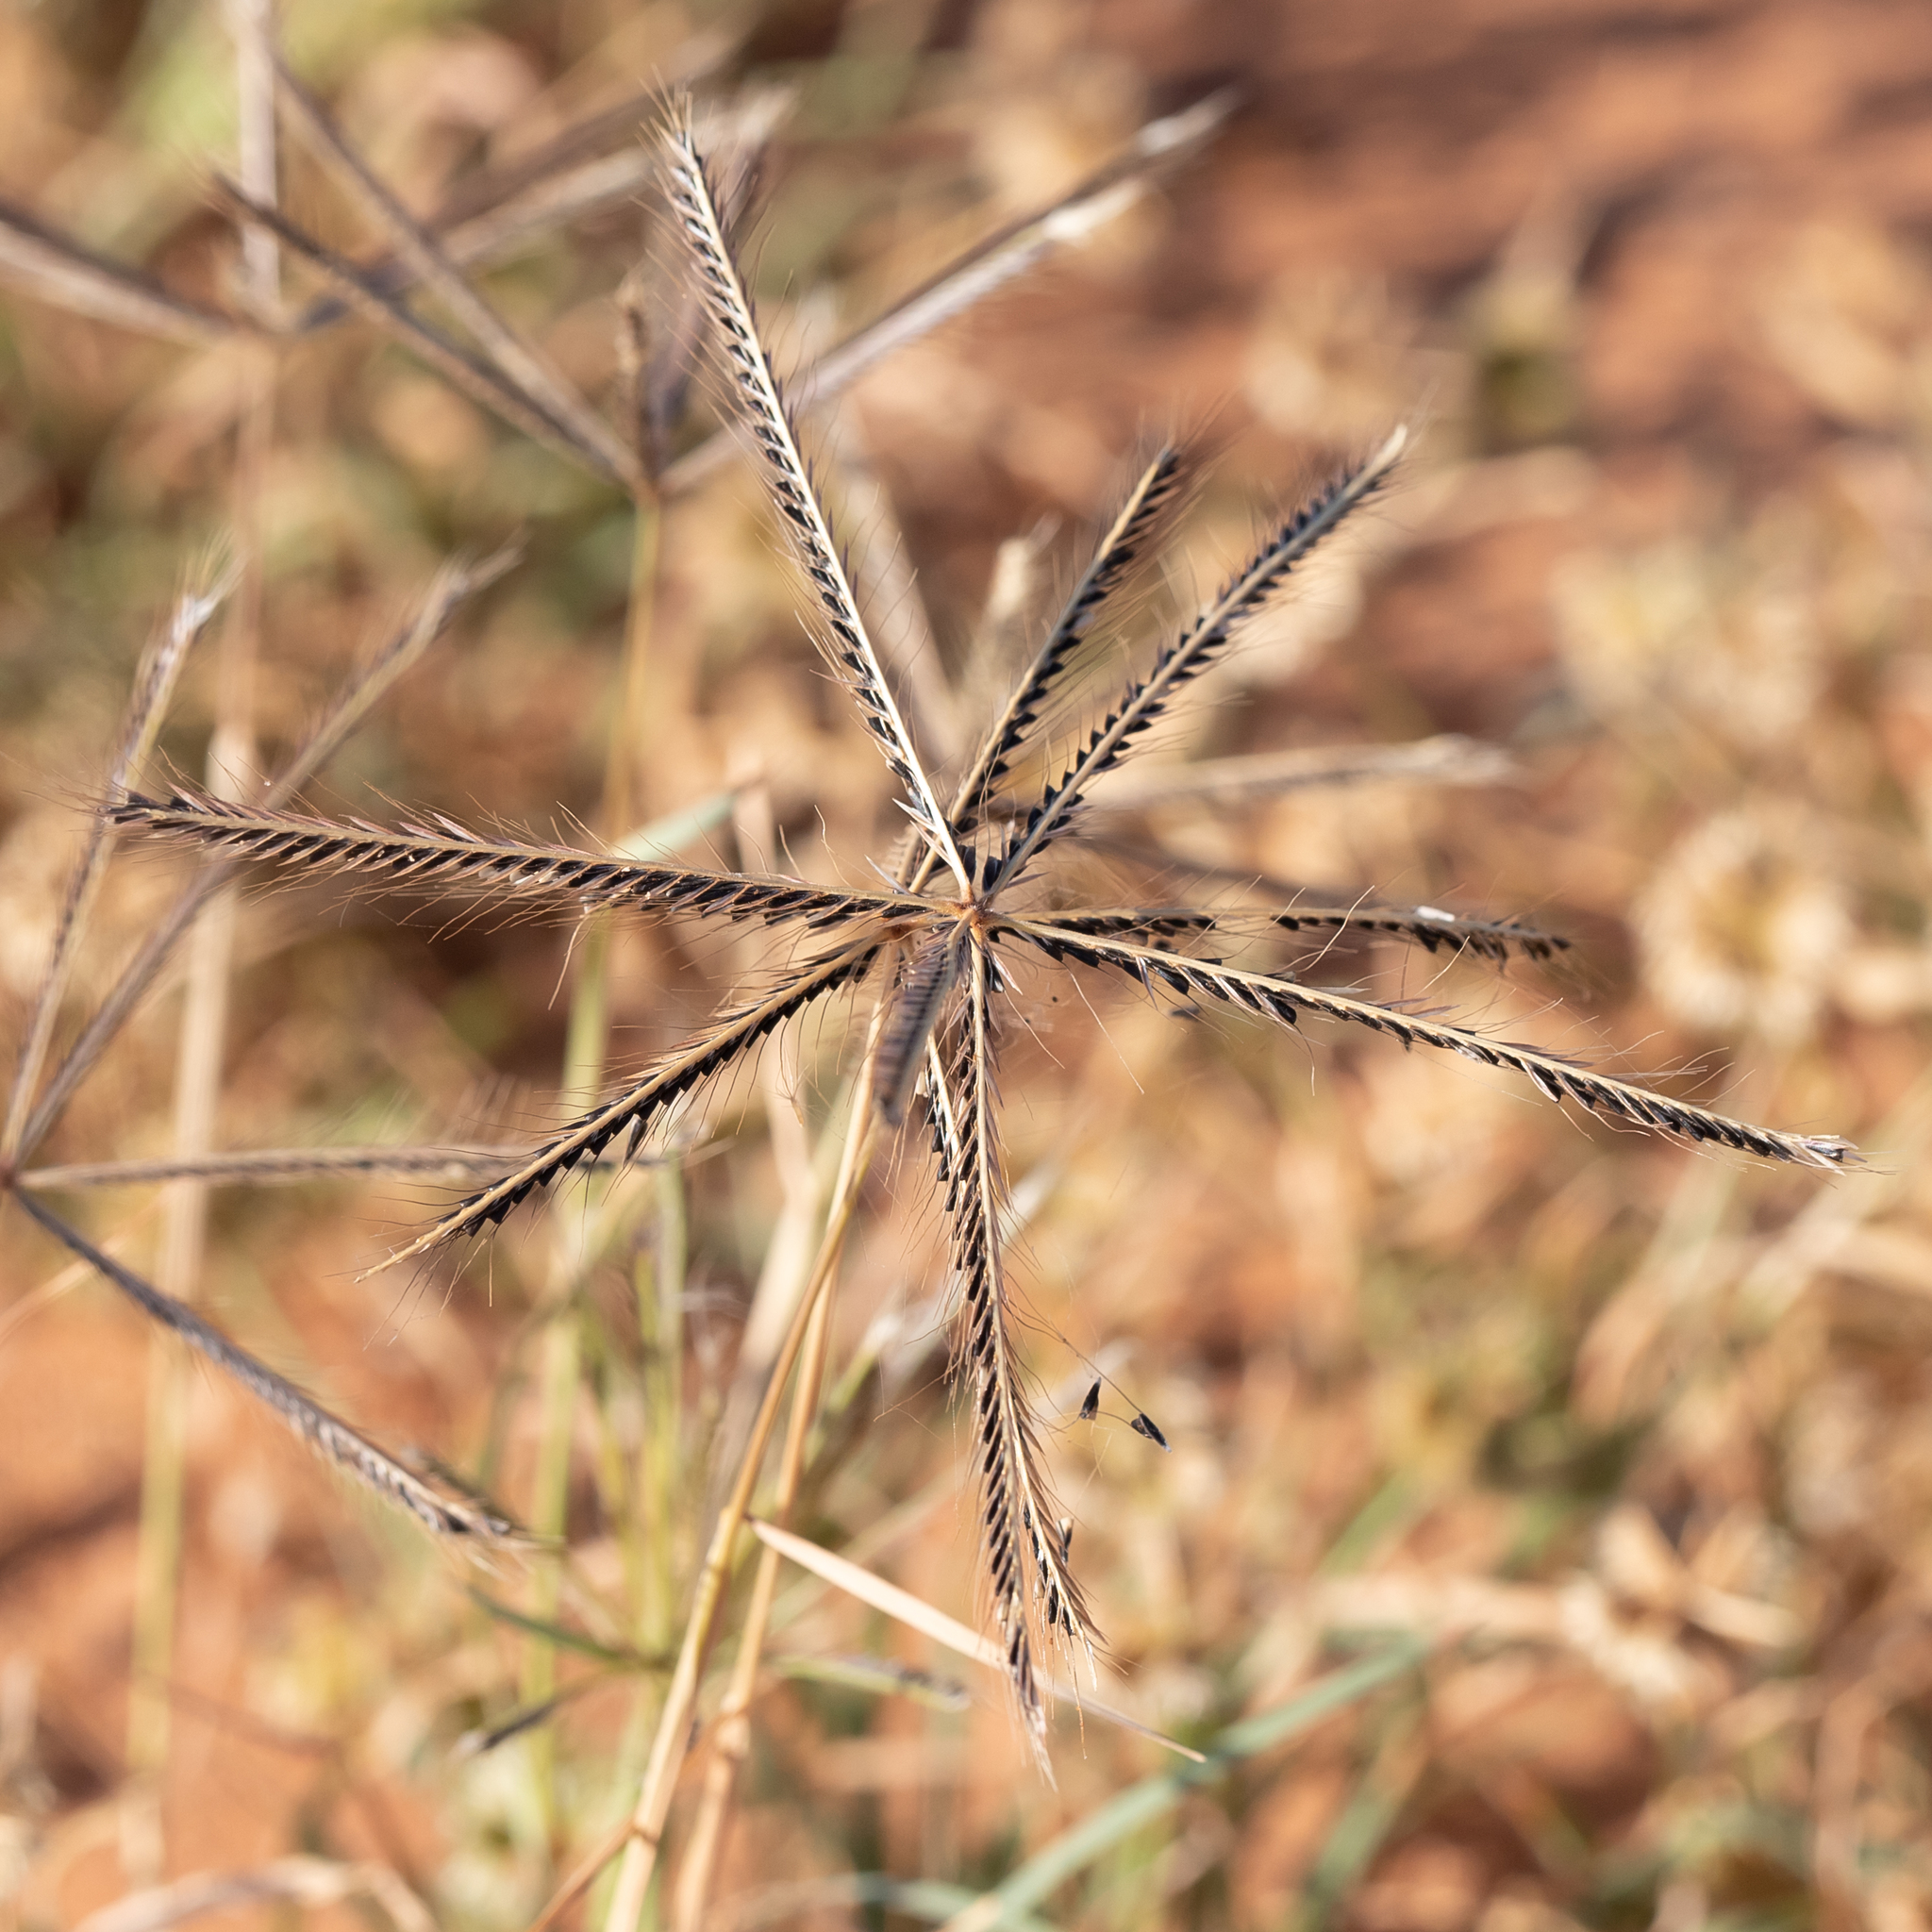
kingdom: Plantae
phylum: Tracheophyta
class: Liliopsida
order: Poales
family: Poaceae
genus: Chloris
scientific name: Chloris truncata
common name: Windmill-grass
